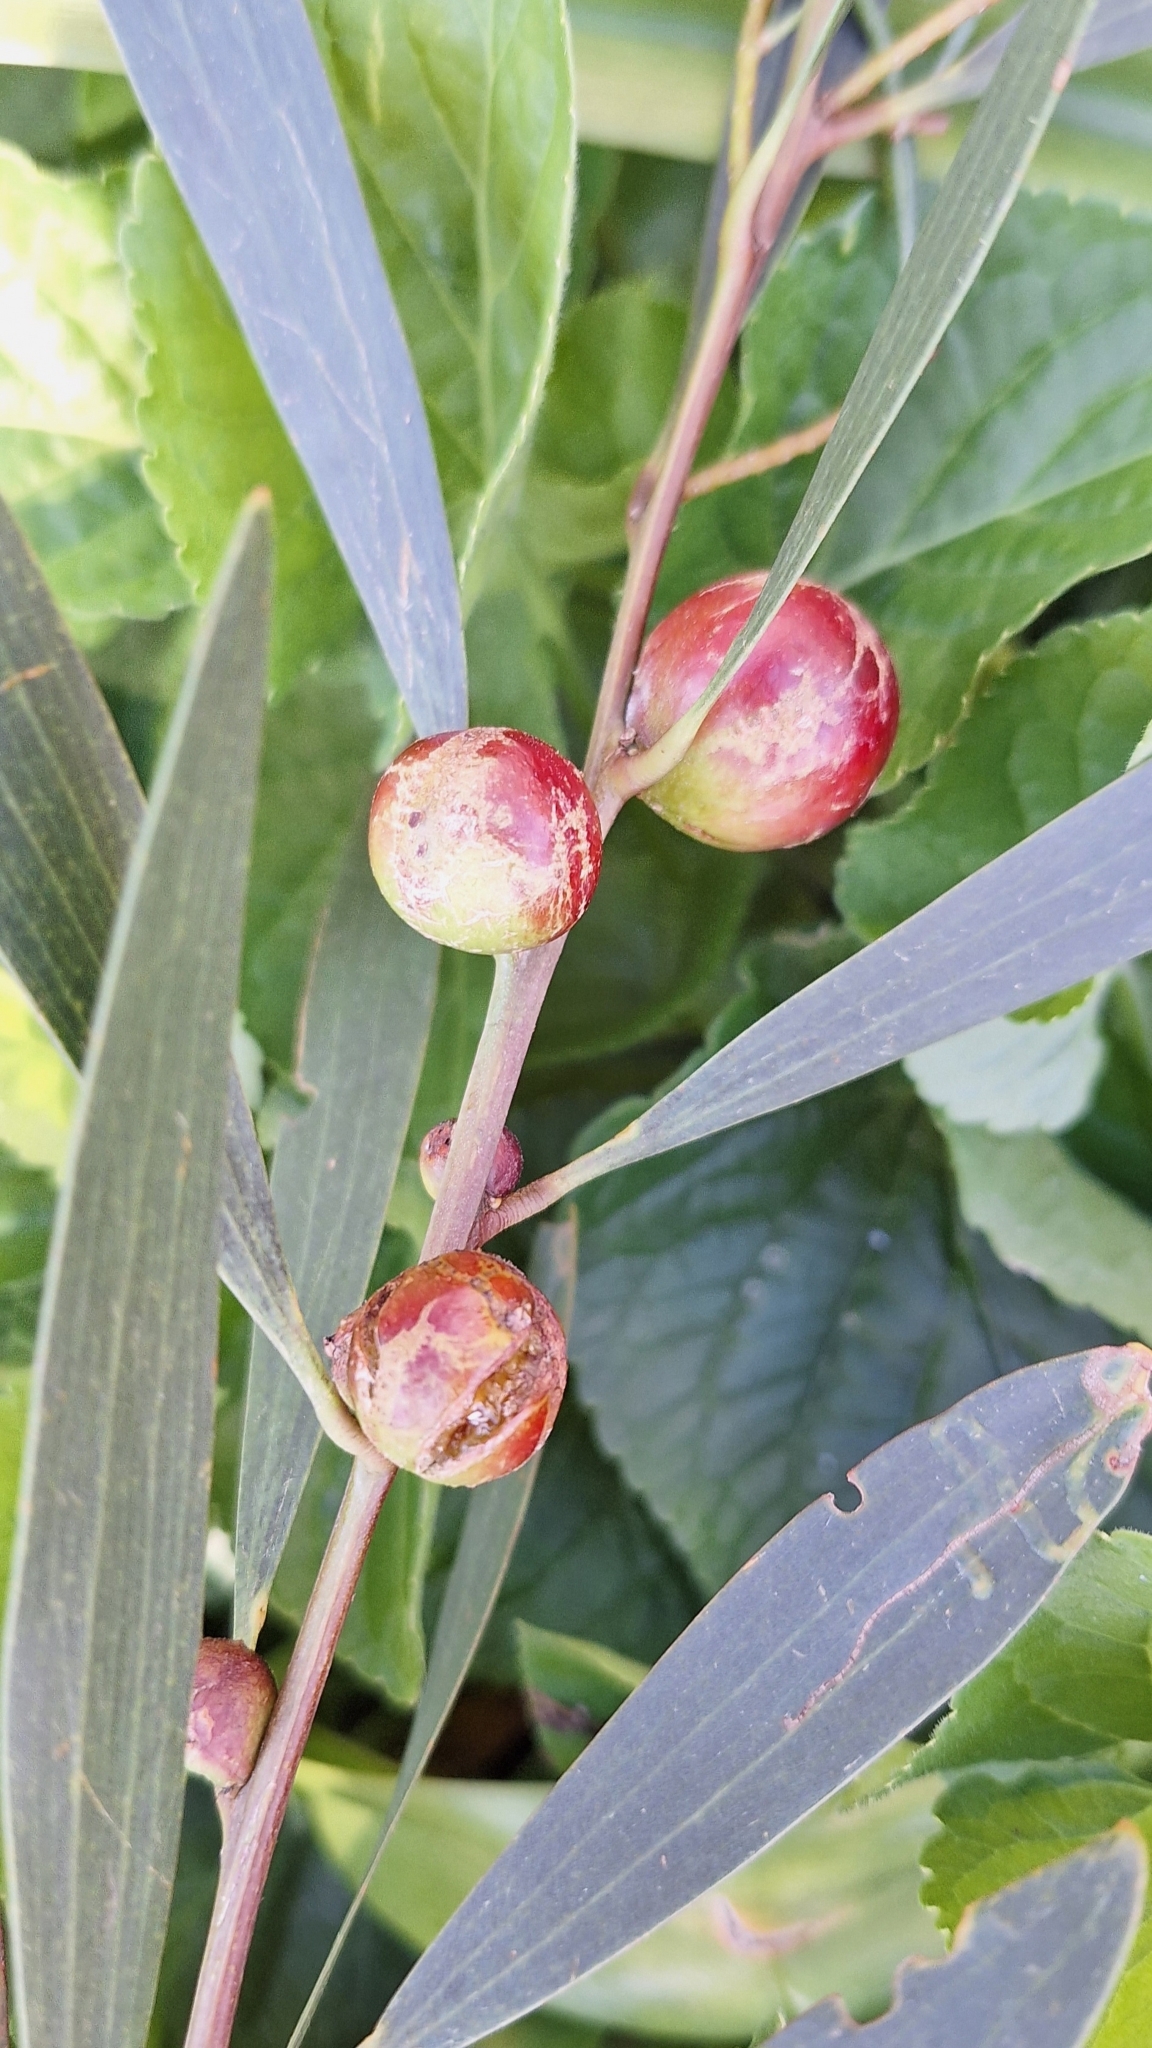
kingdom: Animalia
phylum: Arthropoda
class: Insecta
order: Hymenoptera
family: Pteromalidae
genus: Trichilogaster
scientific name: Trichilogaster acaciaelongifoliae
